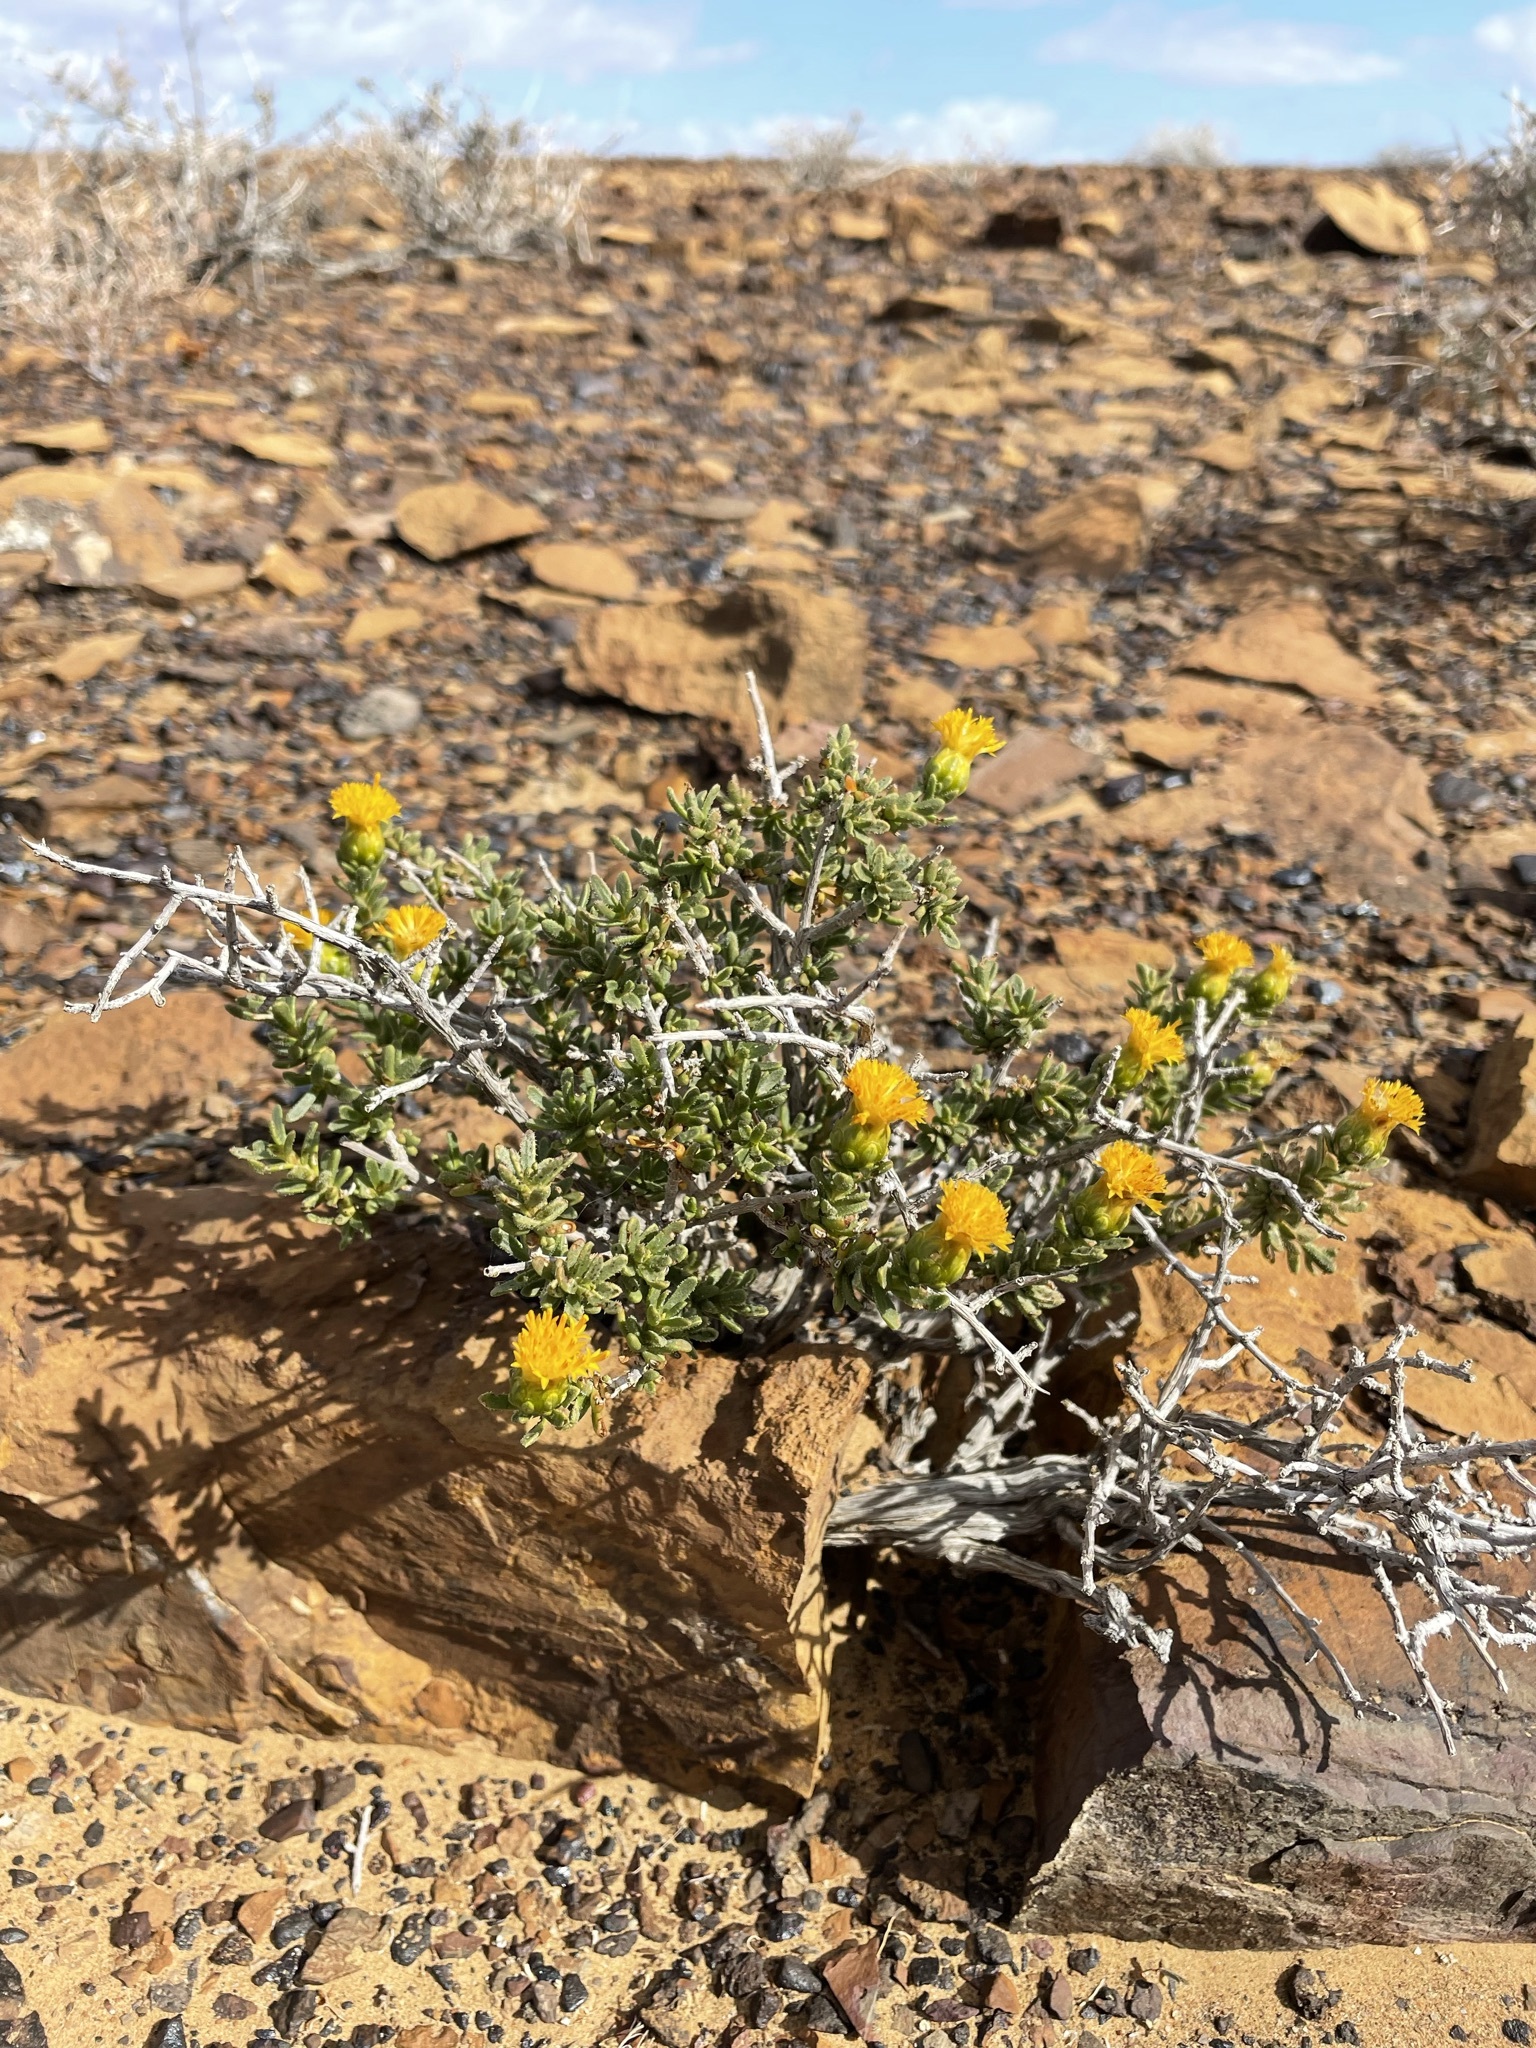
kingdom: Plantae
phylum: Tracheophyta
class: Magnoliopsida
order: Asterales
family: Asteraceae
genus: Pteronia
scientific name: Pteronia intermedia
